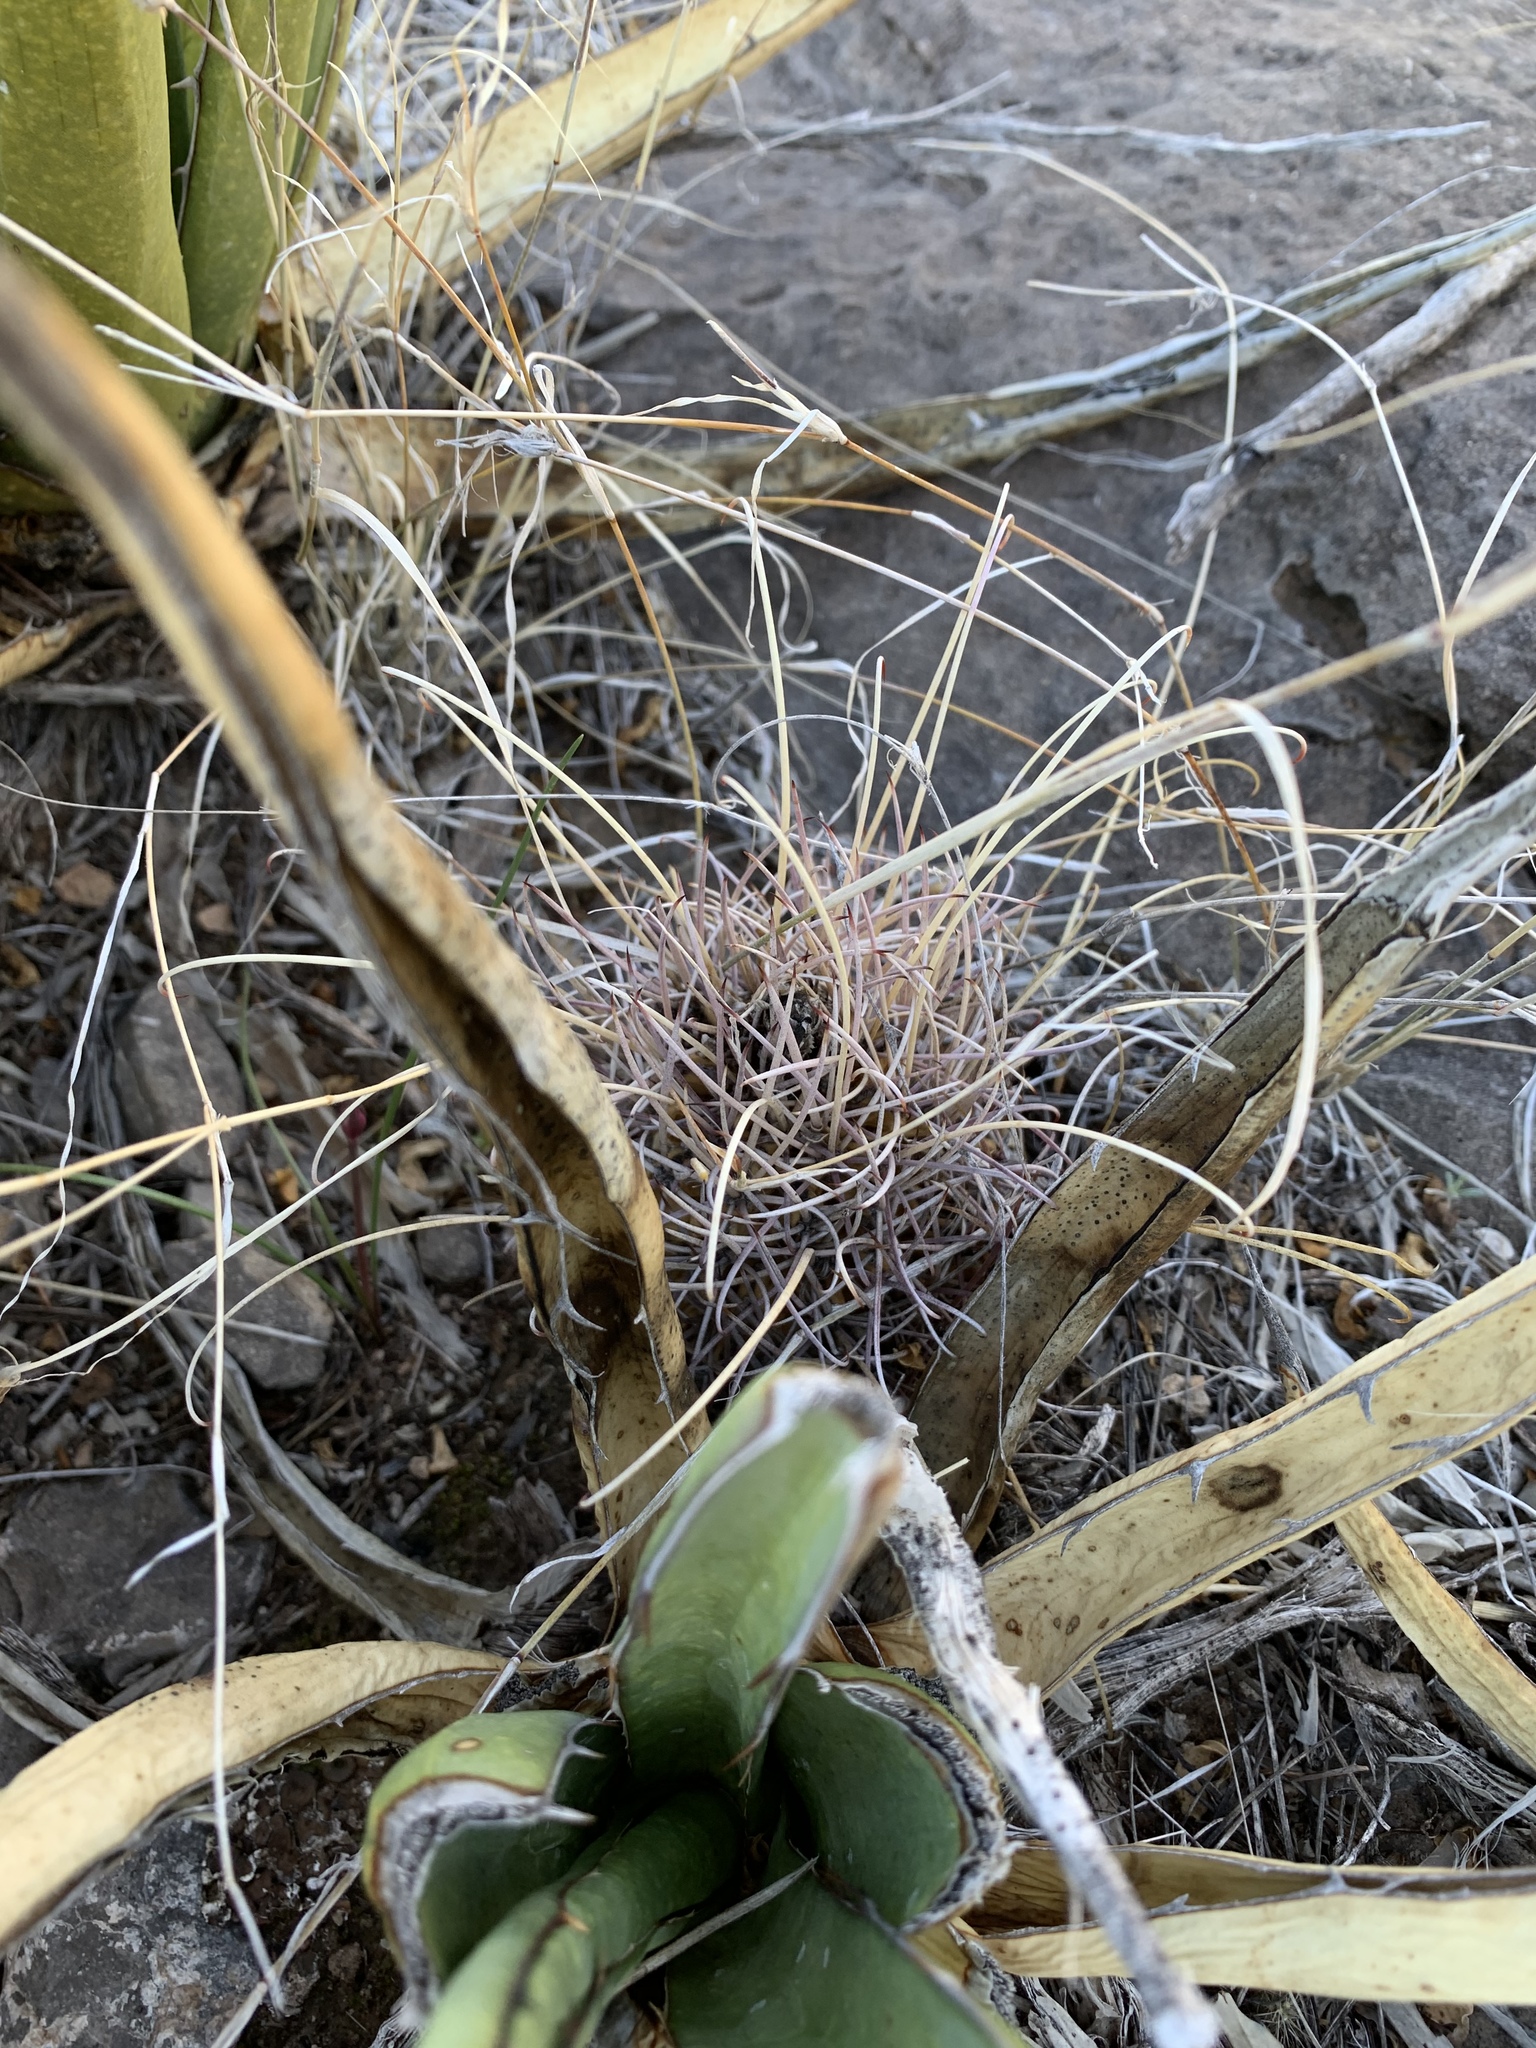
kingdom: Plantae
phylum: Tracheophyta
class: Magnoliopsida
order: Caryophyllales
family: Cactaceae
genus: Ferocactus
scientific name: Ferocactus uncinatus
